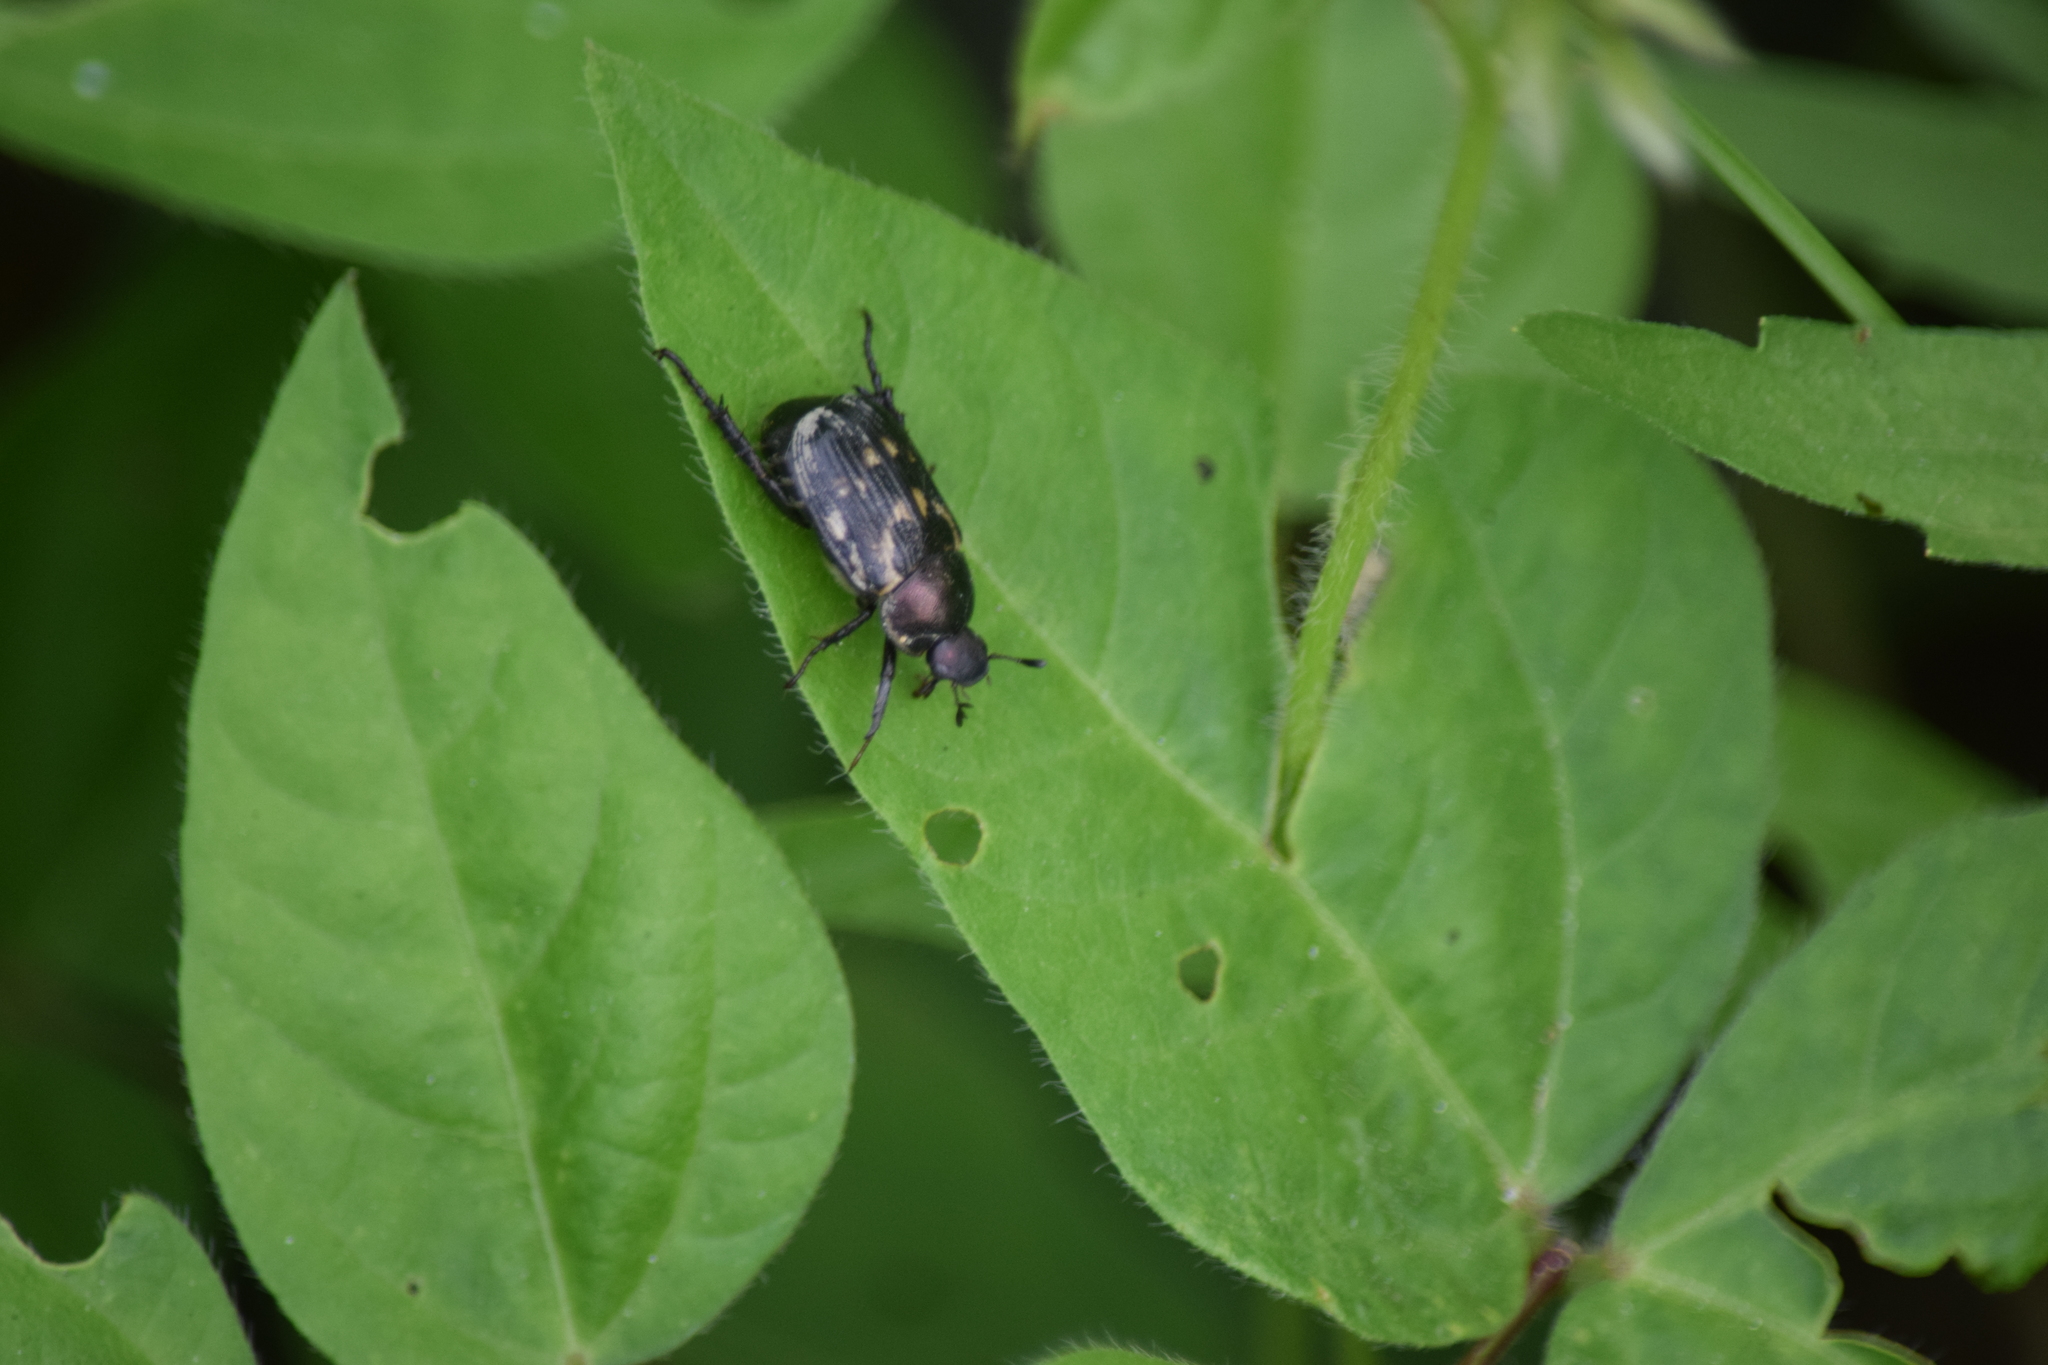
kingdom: Animalia
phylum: Arthropoda
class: Insecta
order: Coleoptera
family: Scarabaeidae
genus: Exomala
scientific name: Exomala orientalis
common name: Oriental beetle
